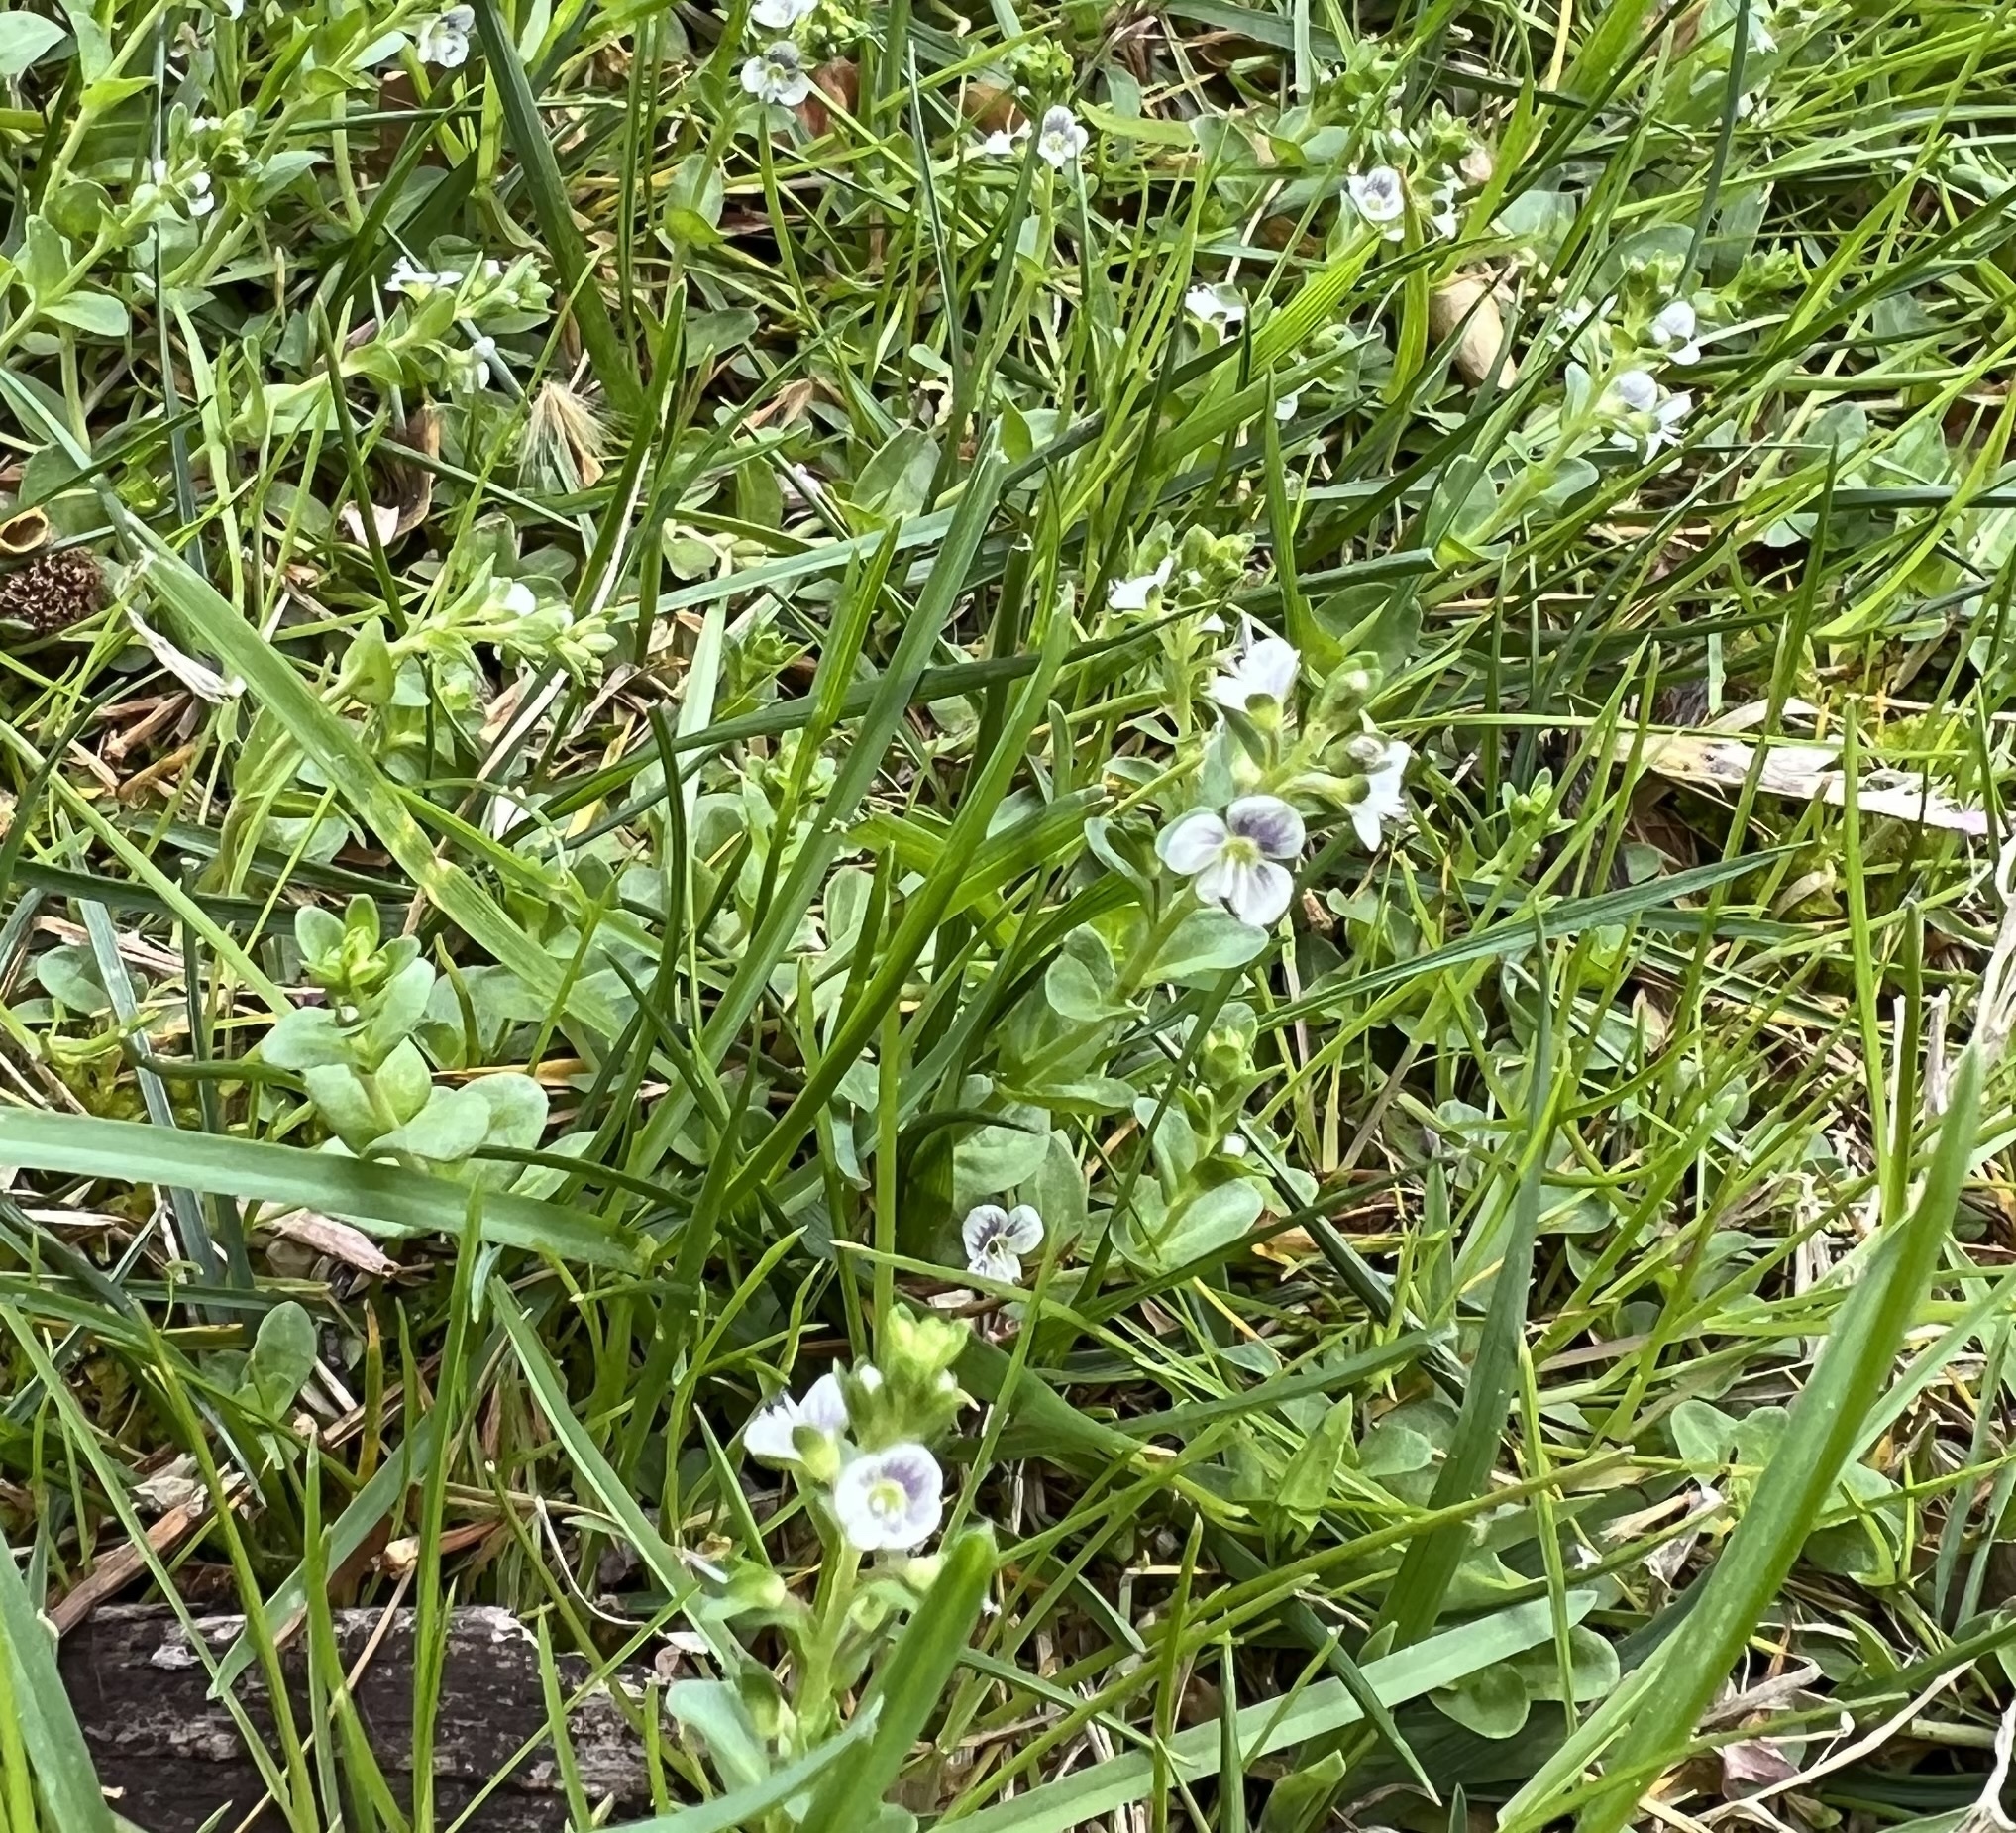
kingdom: Plantae
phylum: Tracheophyta
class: Magnoliopsida
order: Lamiales
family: Plantaginaceae
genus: Veronica
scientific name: Veronica serpyllifolia
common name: Thyme-leaved speedwell
